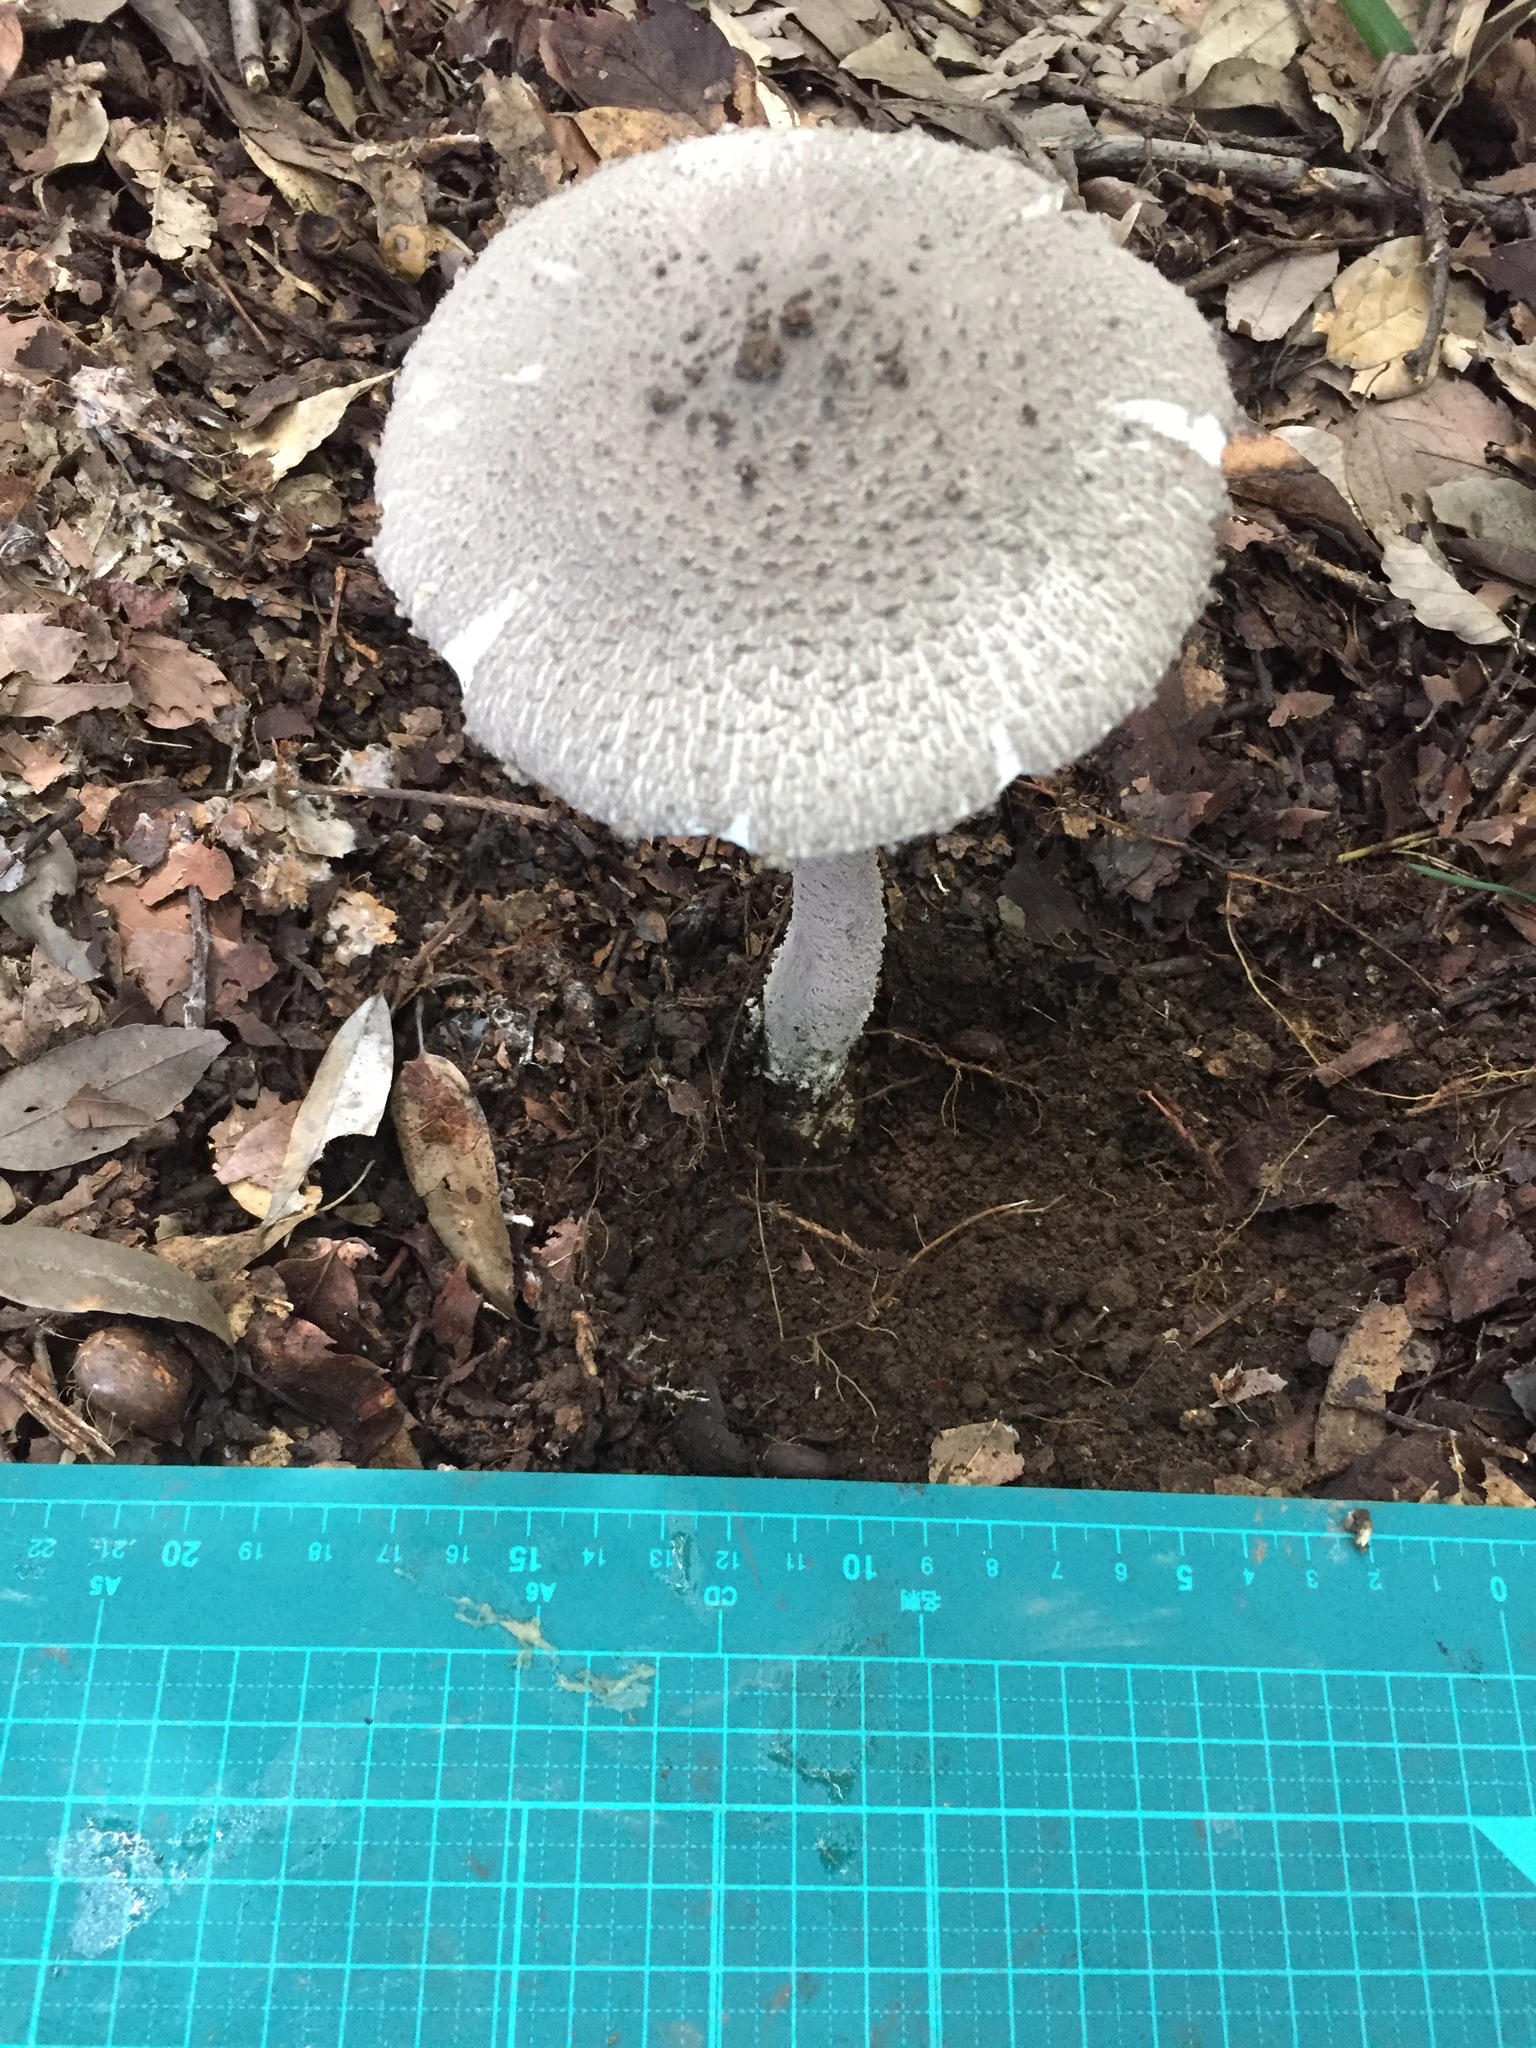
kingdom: Fungi
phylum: Basidiomycota
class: Agaricomycetes
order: Agaricales
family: Amanitaceae
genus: Amanita
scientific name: Amanita sinensis
